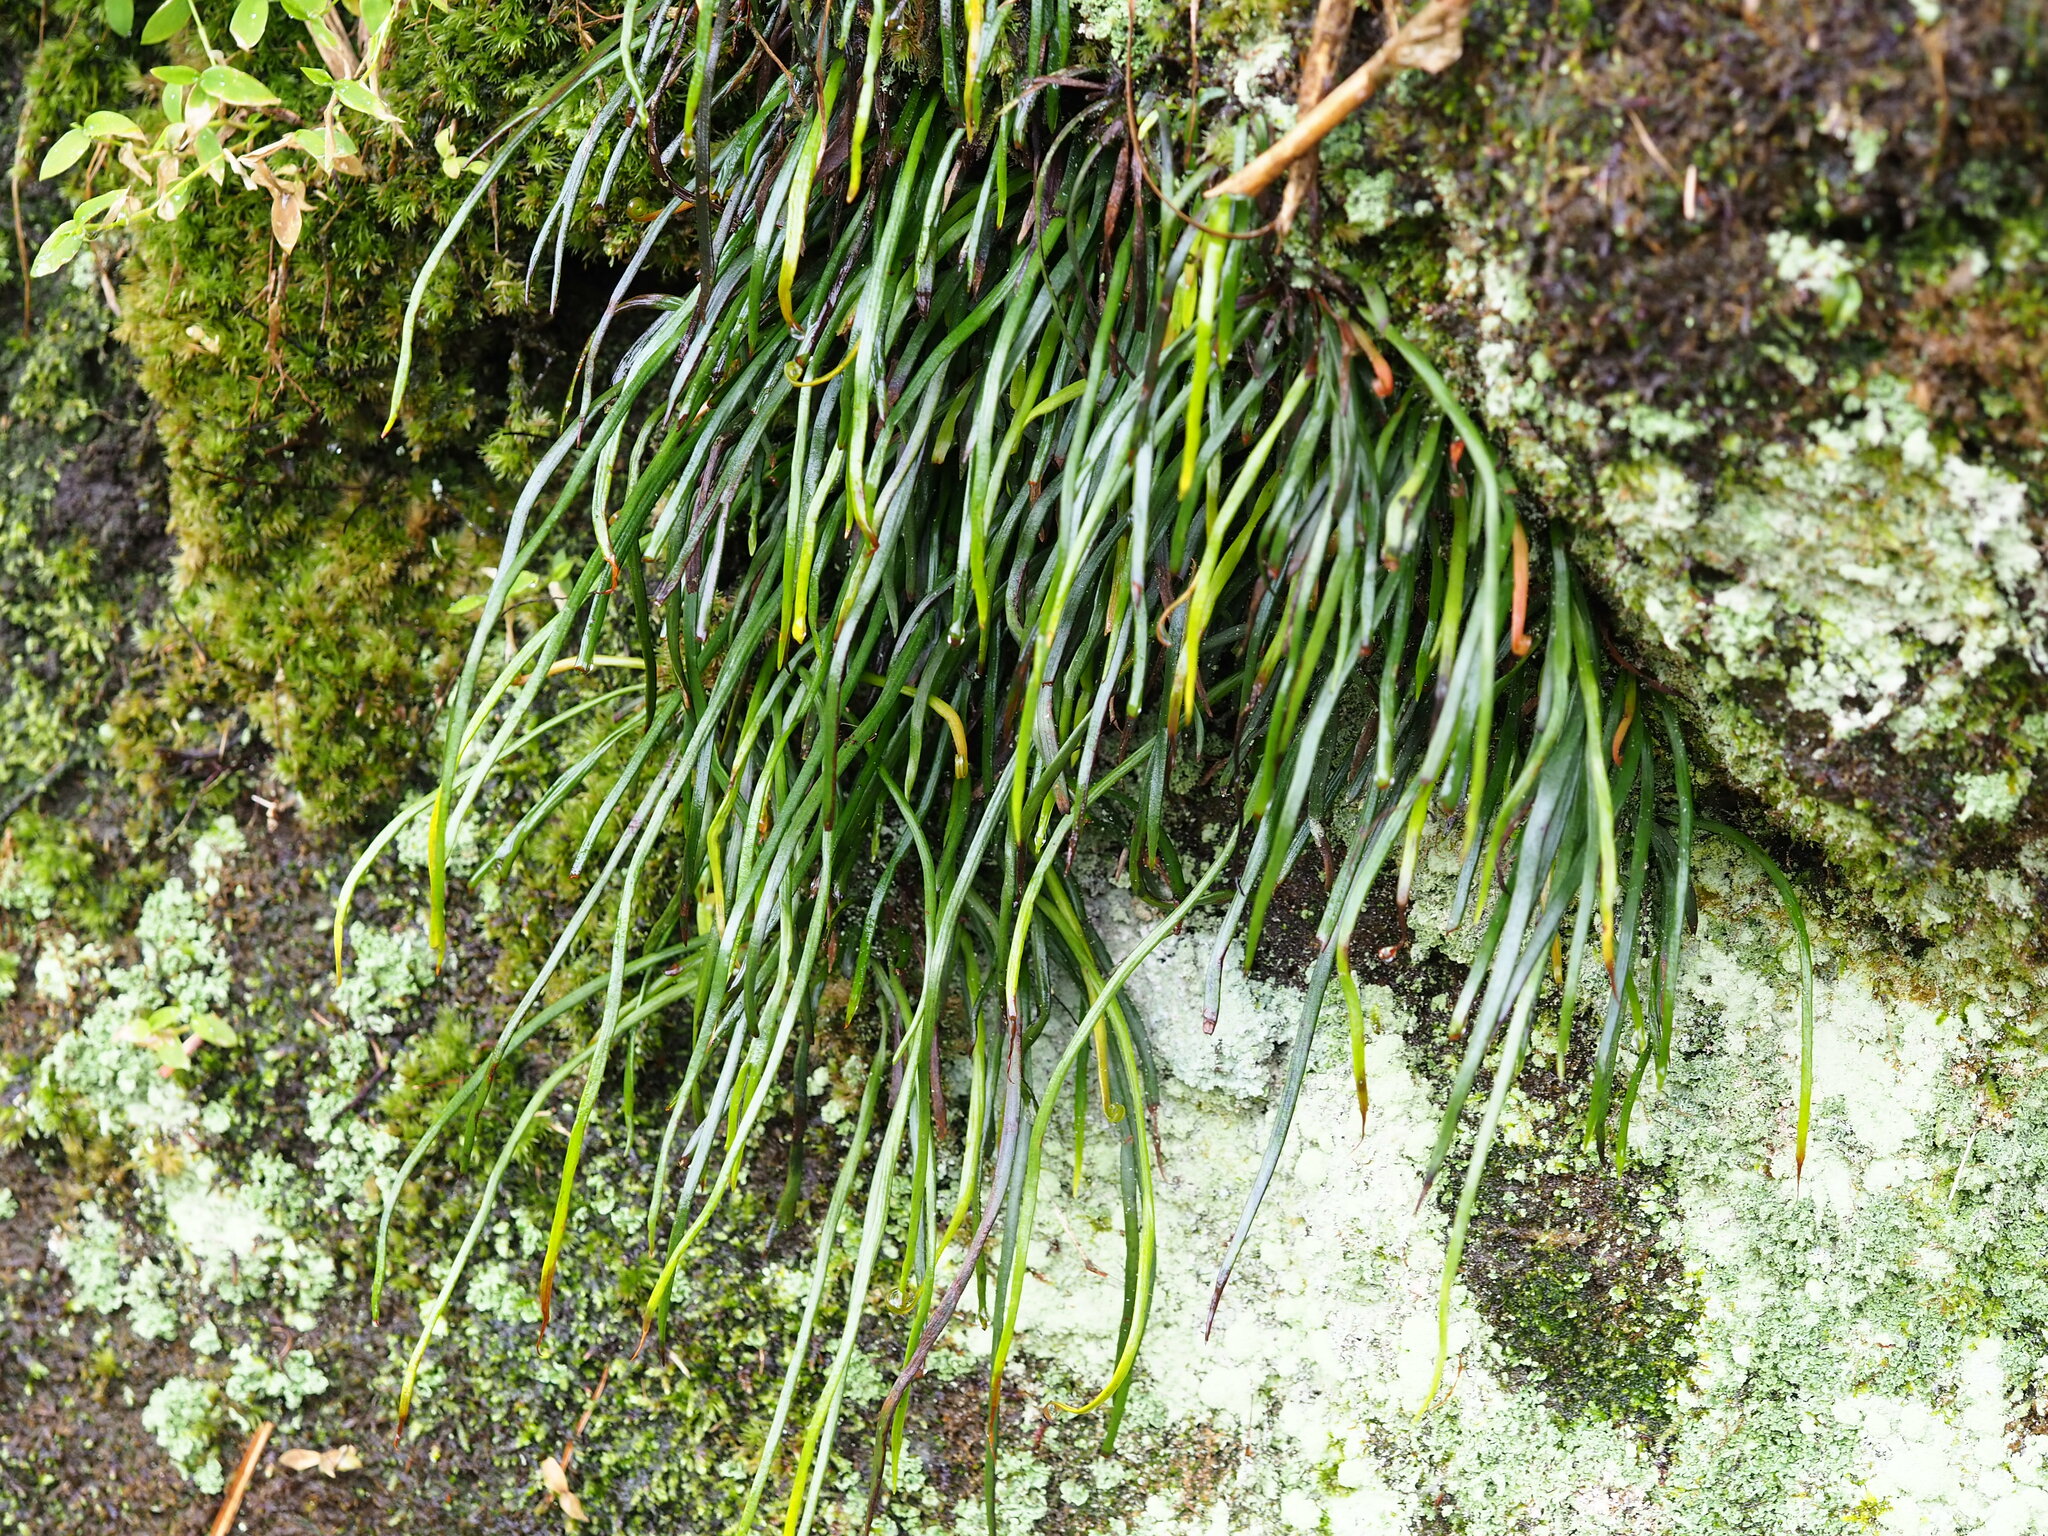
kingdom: Plantae
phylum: Tracheophyta
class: Polypodiopsida
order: Polypodiales
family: Pteridaceae
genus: Haplopteris
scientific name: Haplopteris anguste-elongata
